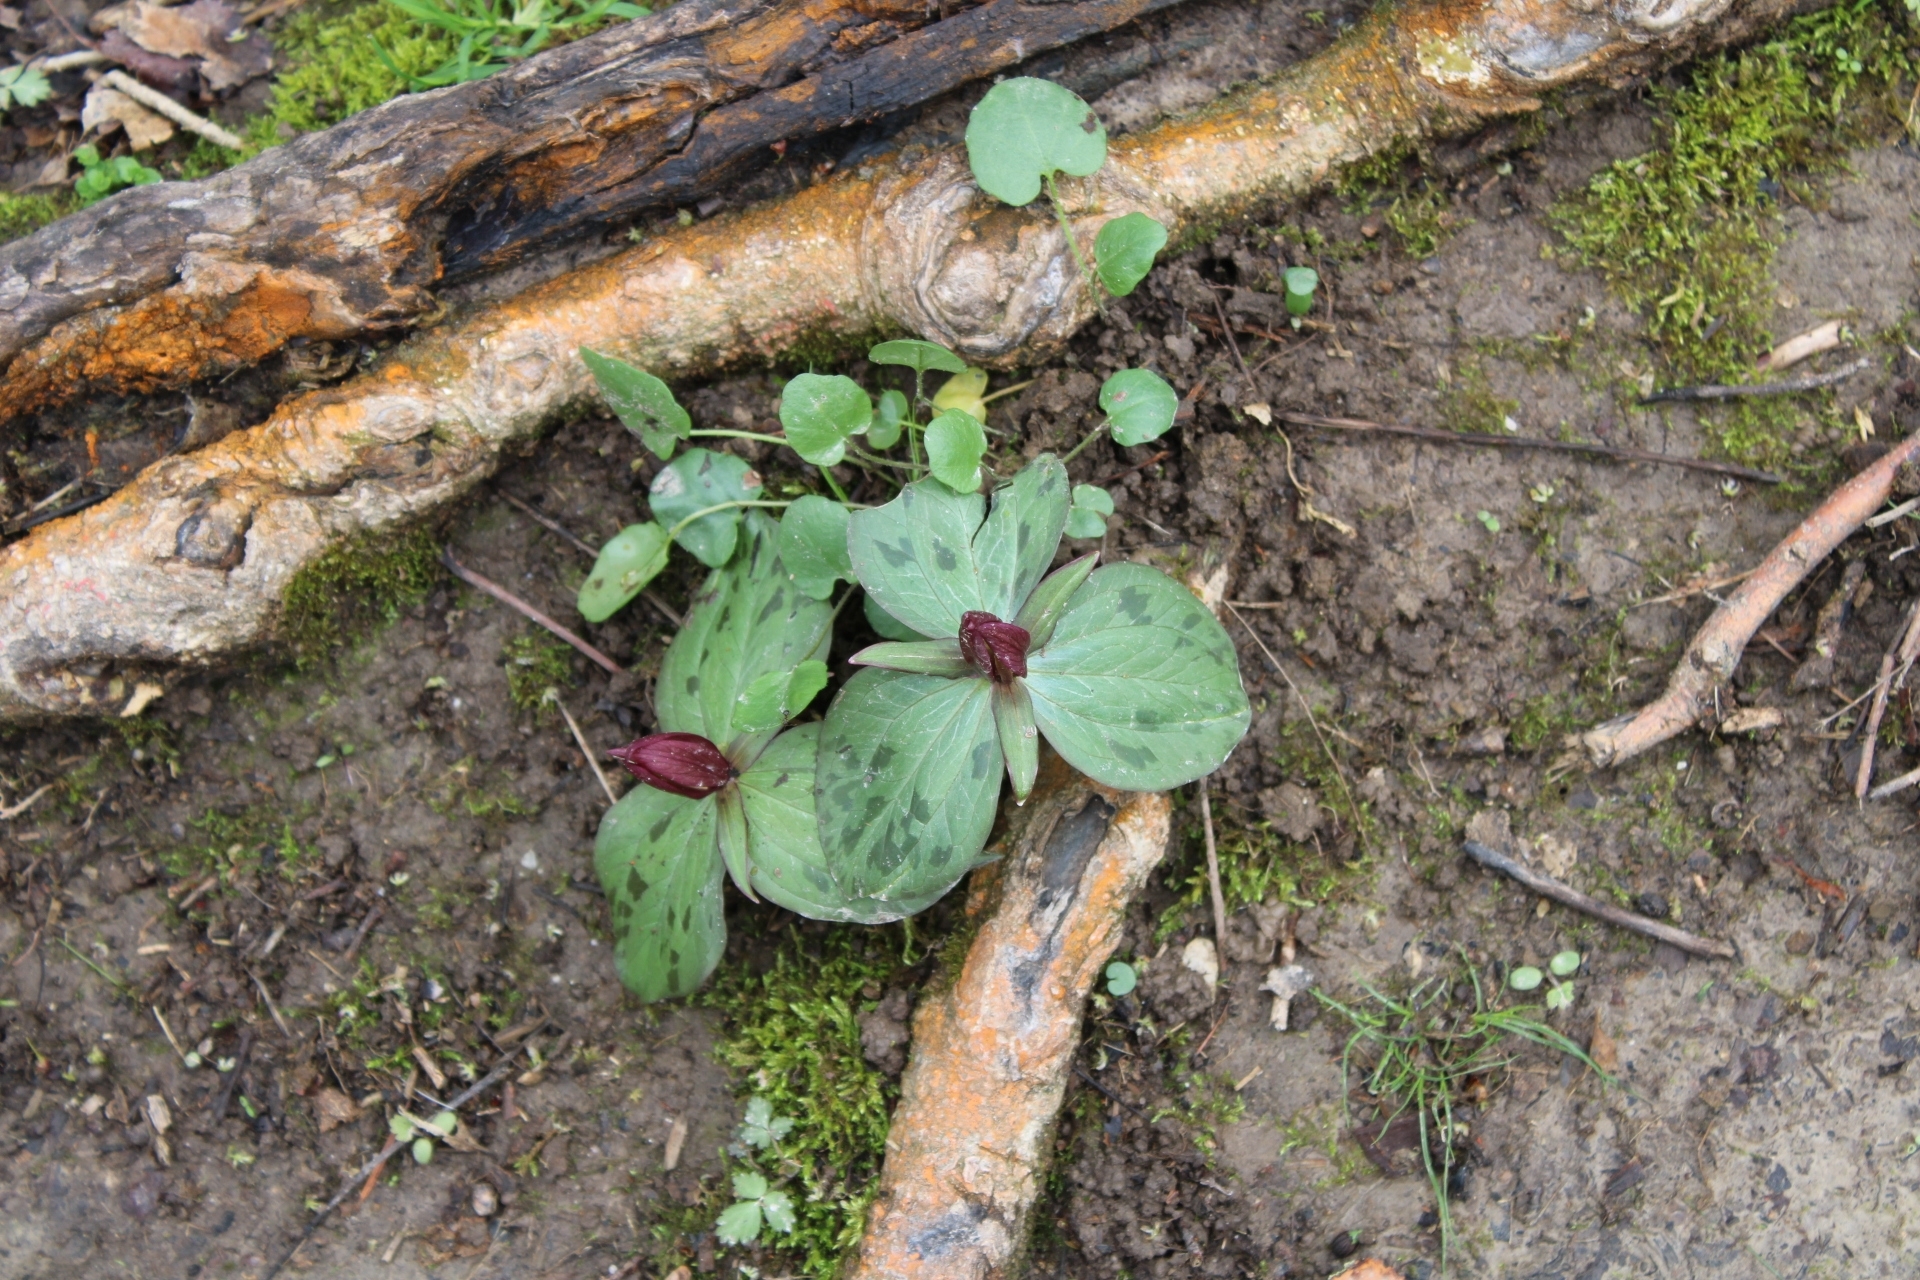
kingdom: Plantae
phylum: Tracheophyta
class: Liliopsida
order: Liliales
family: Melanthiaceae
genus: Trillium
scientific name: Trillium sessile
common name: Sessile trillium
